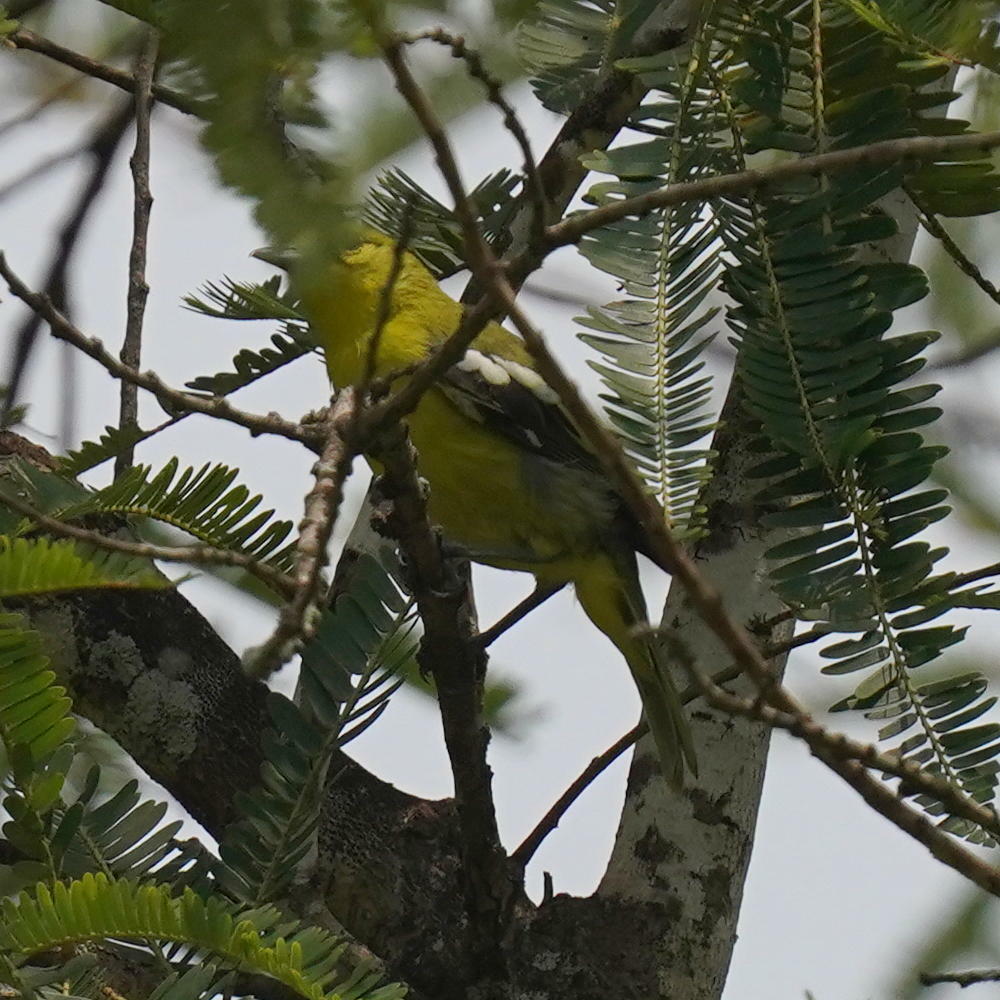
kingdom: Animalia
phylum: Chordata
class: Aves
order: Passeriformes
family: Aegithinidae
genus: Aegithina
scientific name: Aegithina tiphia
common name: Common iora
